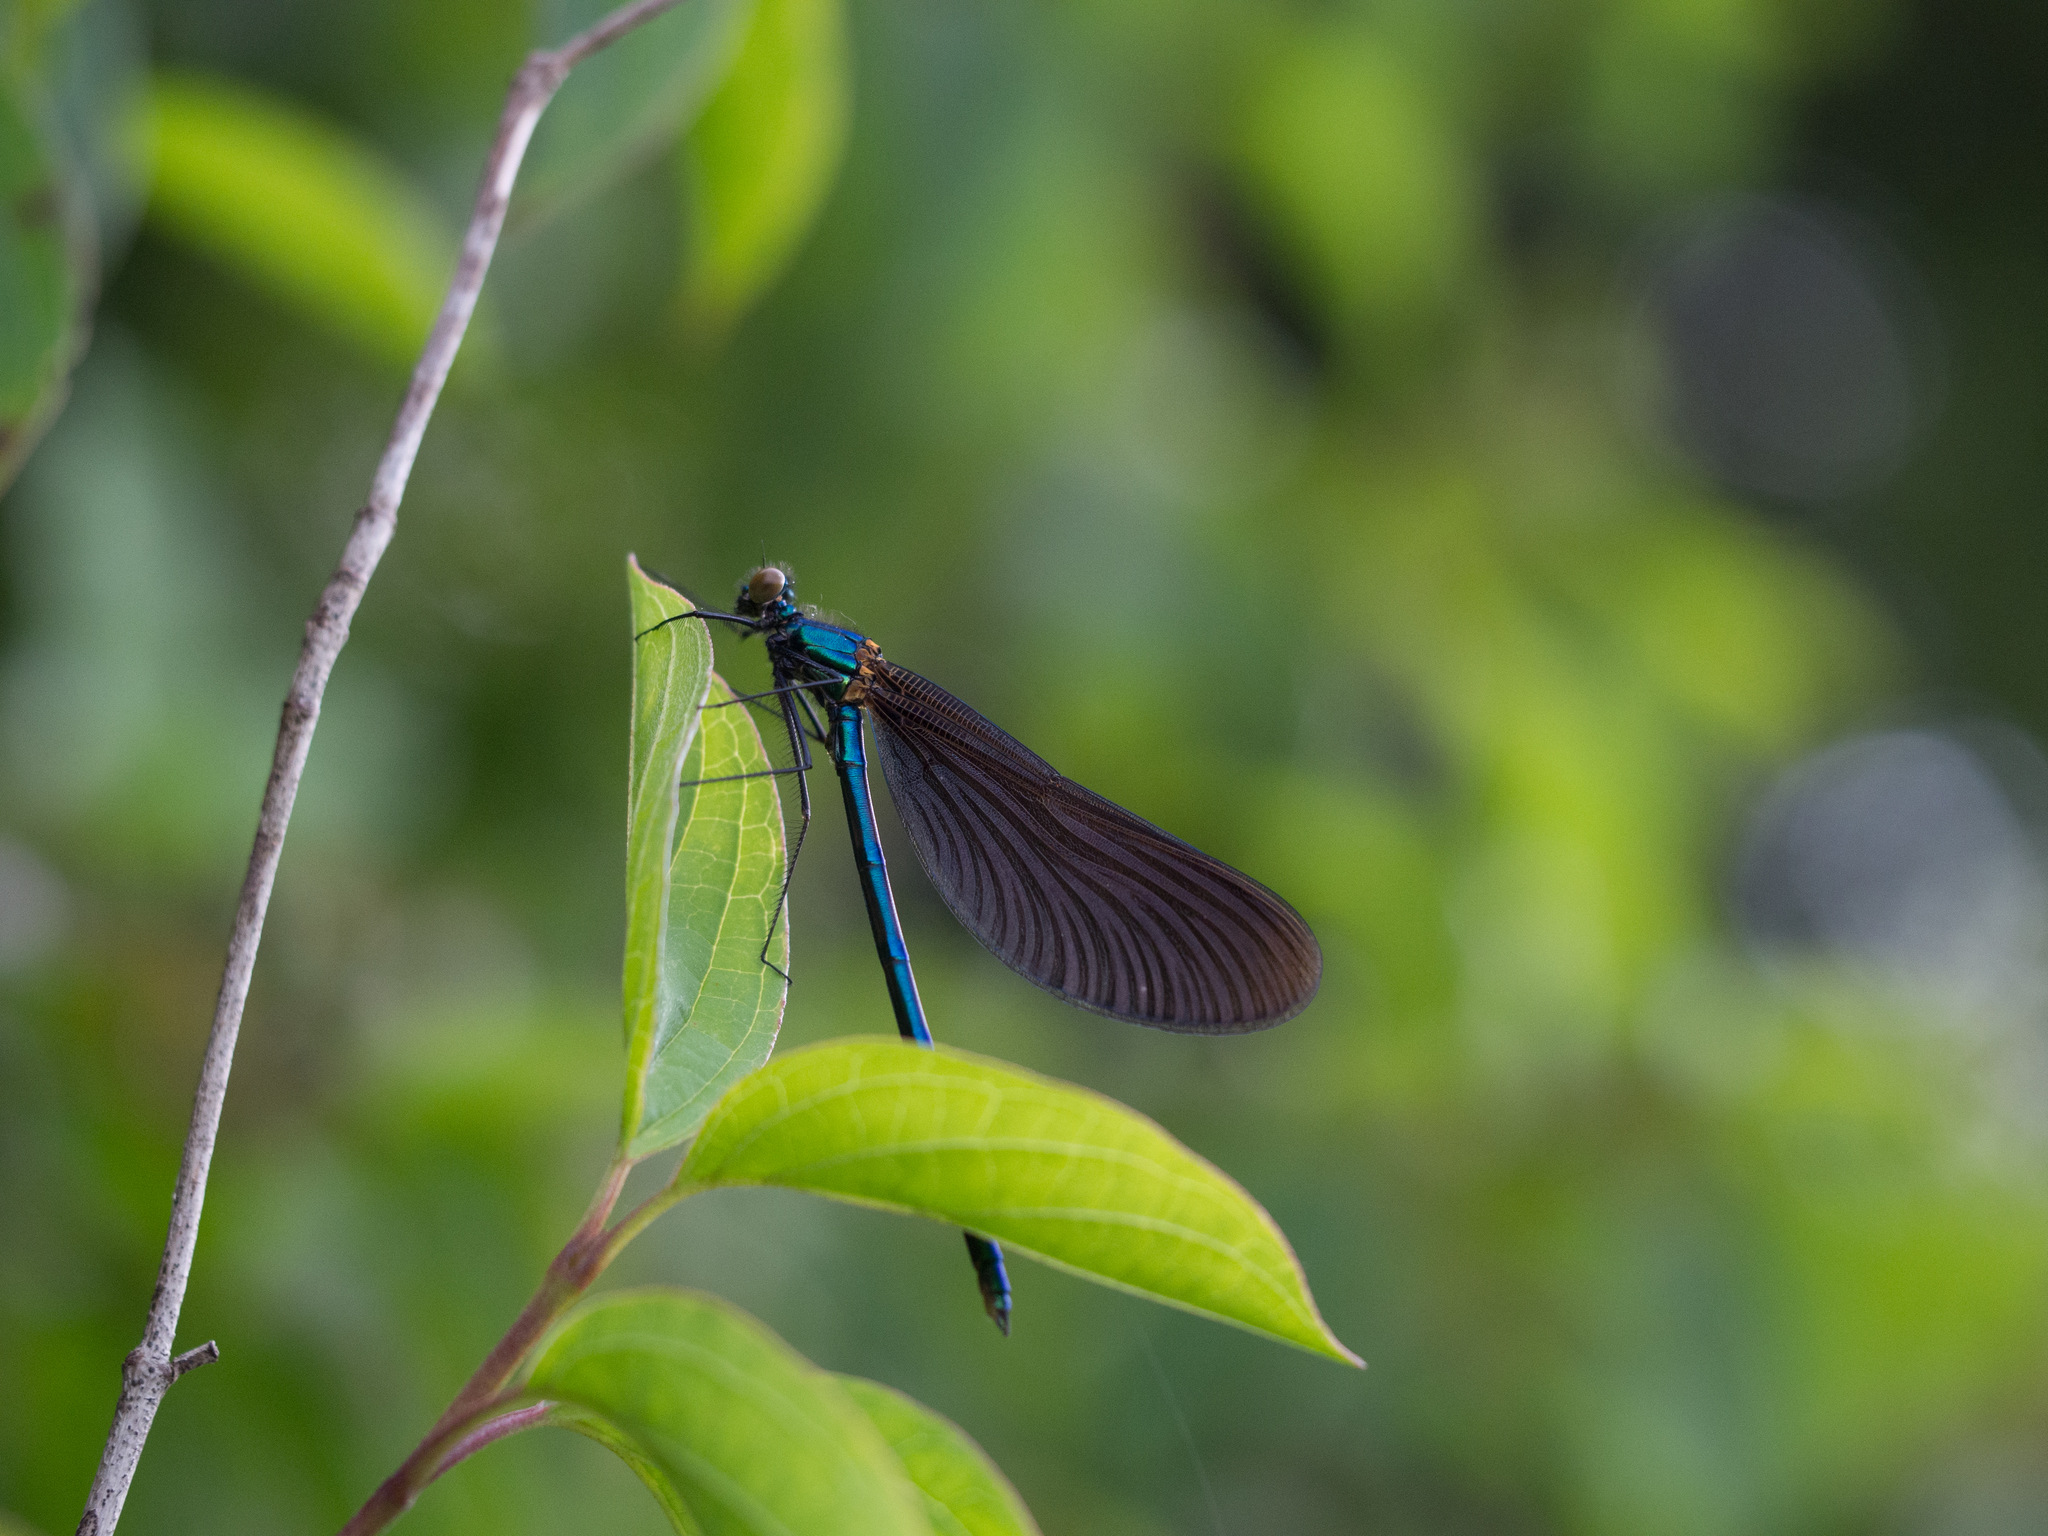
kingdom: Animalia
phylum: Arthropoda
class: Insecta
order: Odonata
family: Calopterygidae
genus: Calopteryx
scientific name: Calopteryx virgo
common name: Beautiful demoiselle
